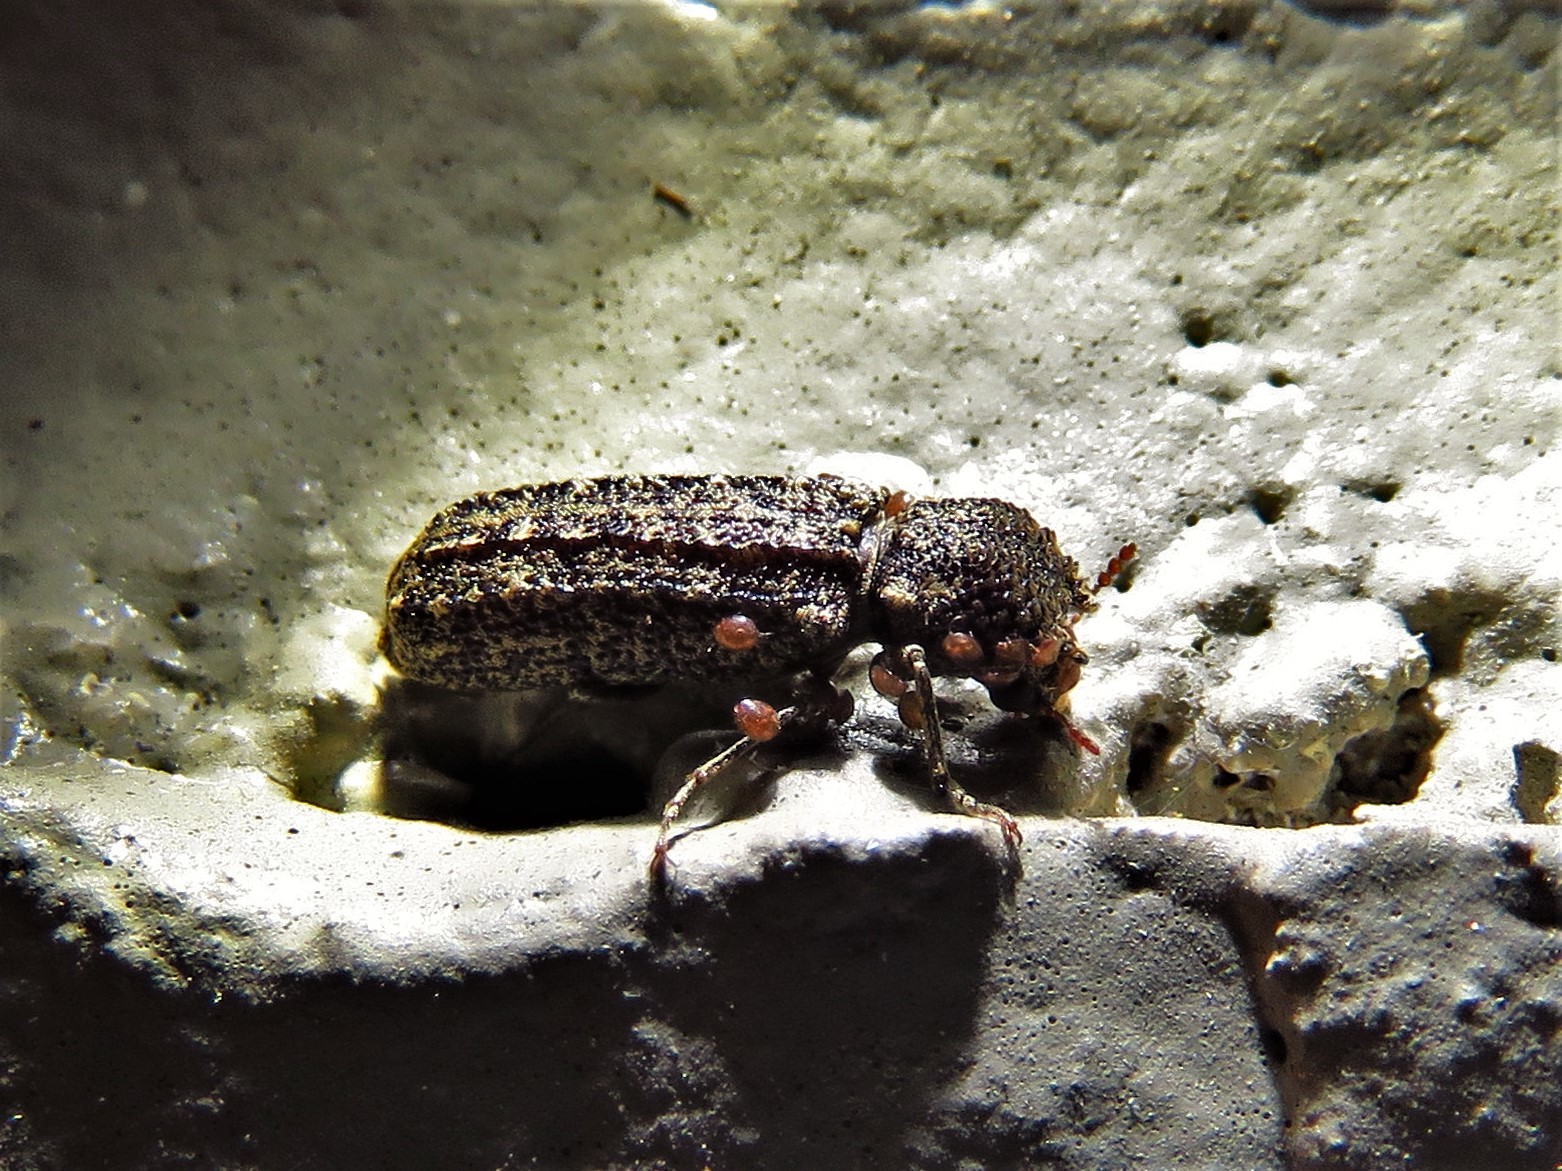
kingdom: Animalia
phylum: Arthropoda
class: Insecta
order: Coleoptera
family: Bostrichidae
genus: Lichenophanes
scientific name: Lichenophanes bicornis
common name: Two-horned powder-post beetle
